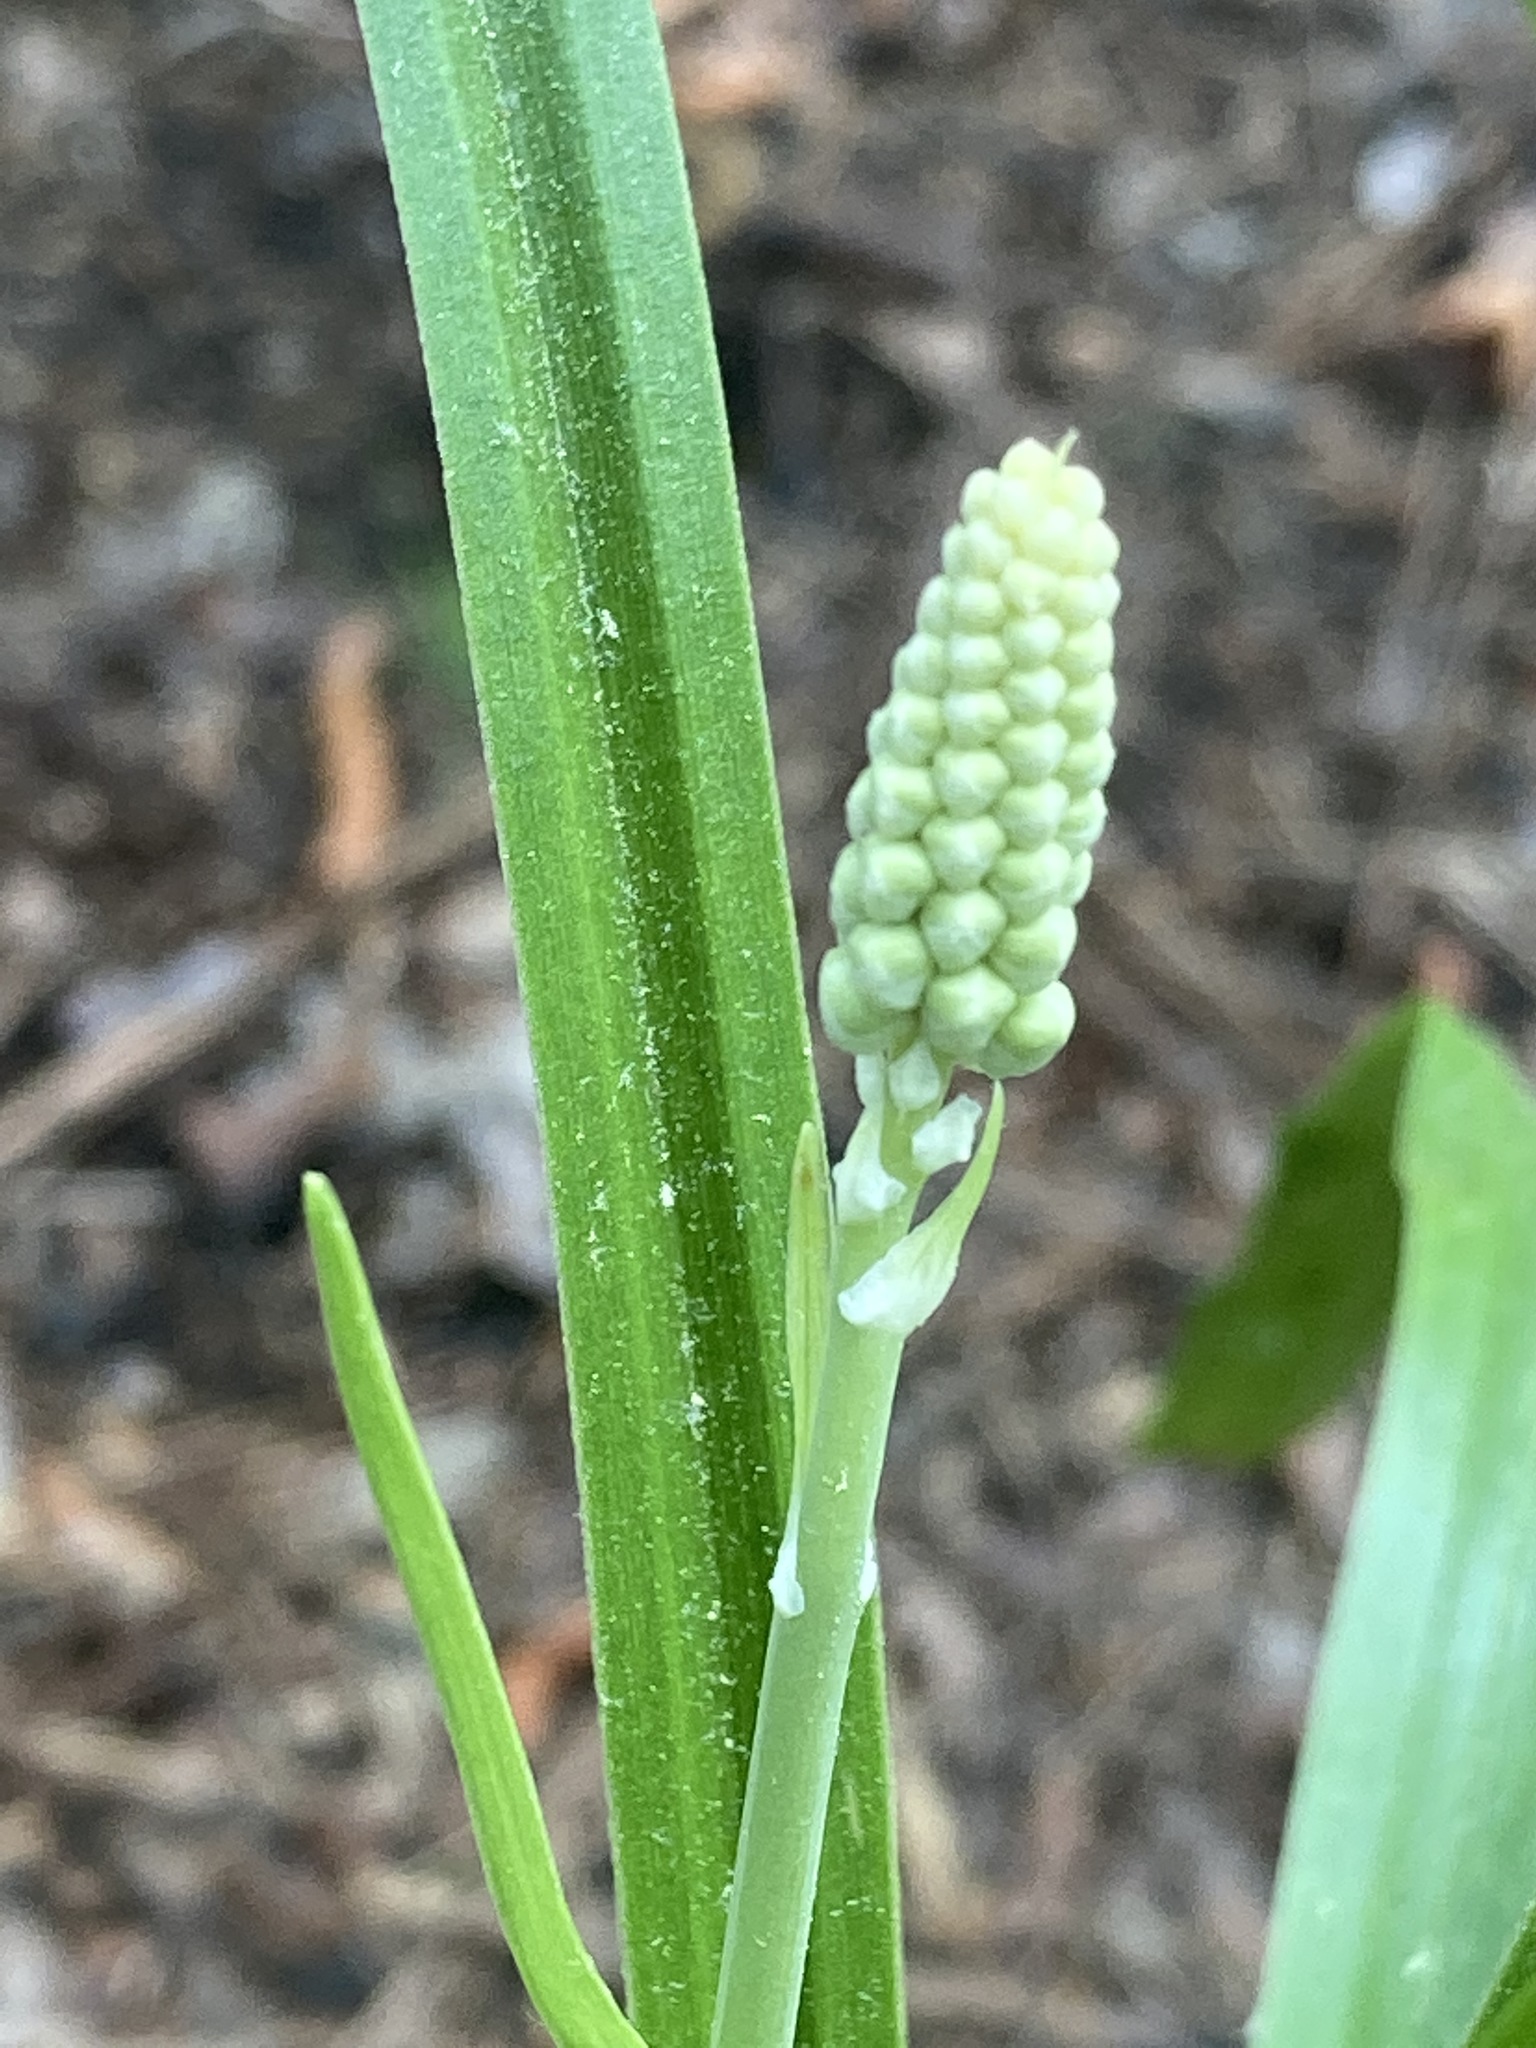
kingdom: Plantae
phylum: Tracheophyta
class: Liliopsida
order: Liliales
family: Melanthiaceae
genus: Amianthium
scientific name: Amianthium muscitoxicum
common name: Fly-poison
